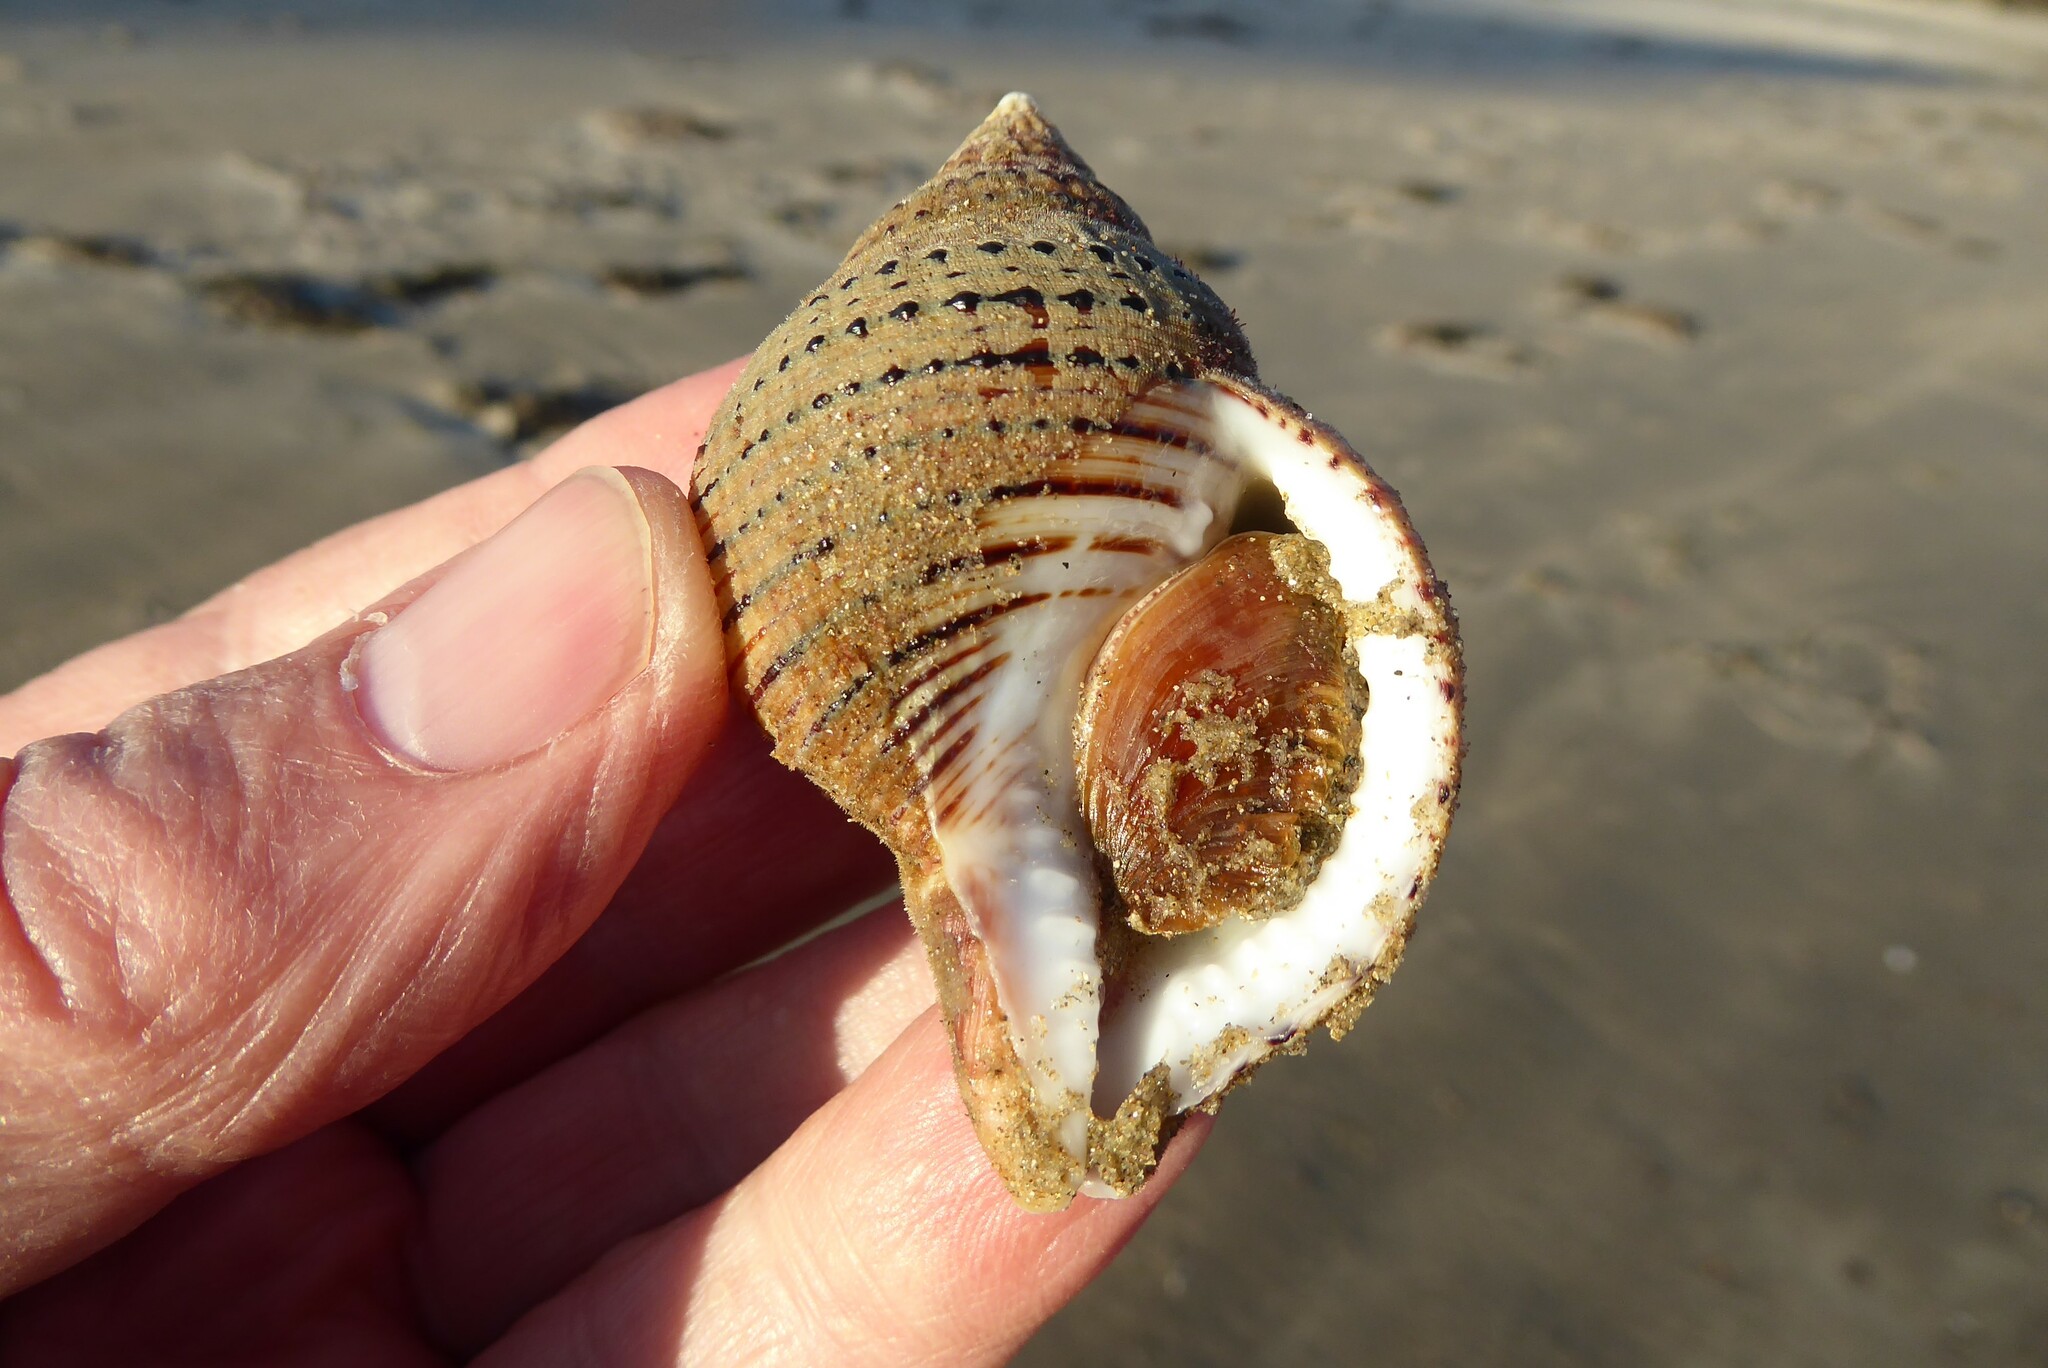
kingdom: Animalia
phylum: Mollusca
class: Gastropoda
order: Littorinimorpha
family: Cymatiidae
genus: Argobuccinum
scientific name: Argobuccinum pustulosum
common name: Pustular triton
